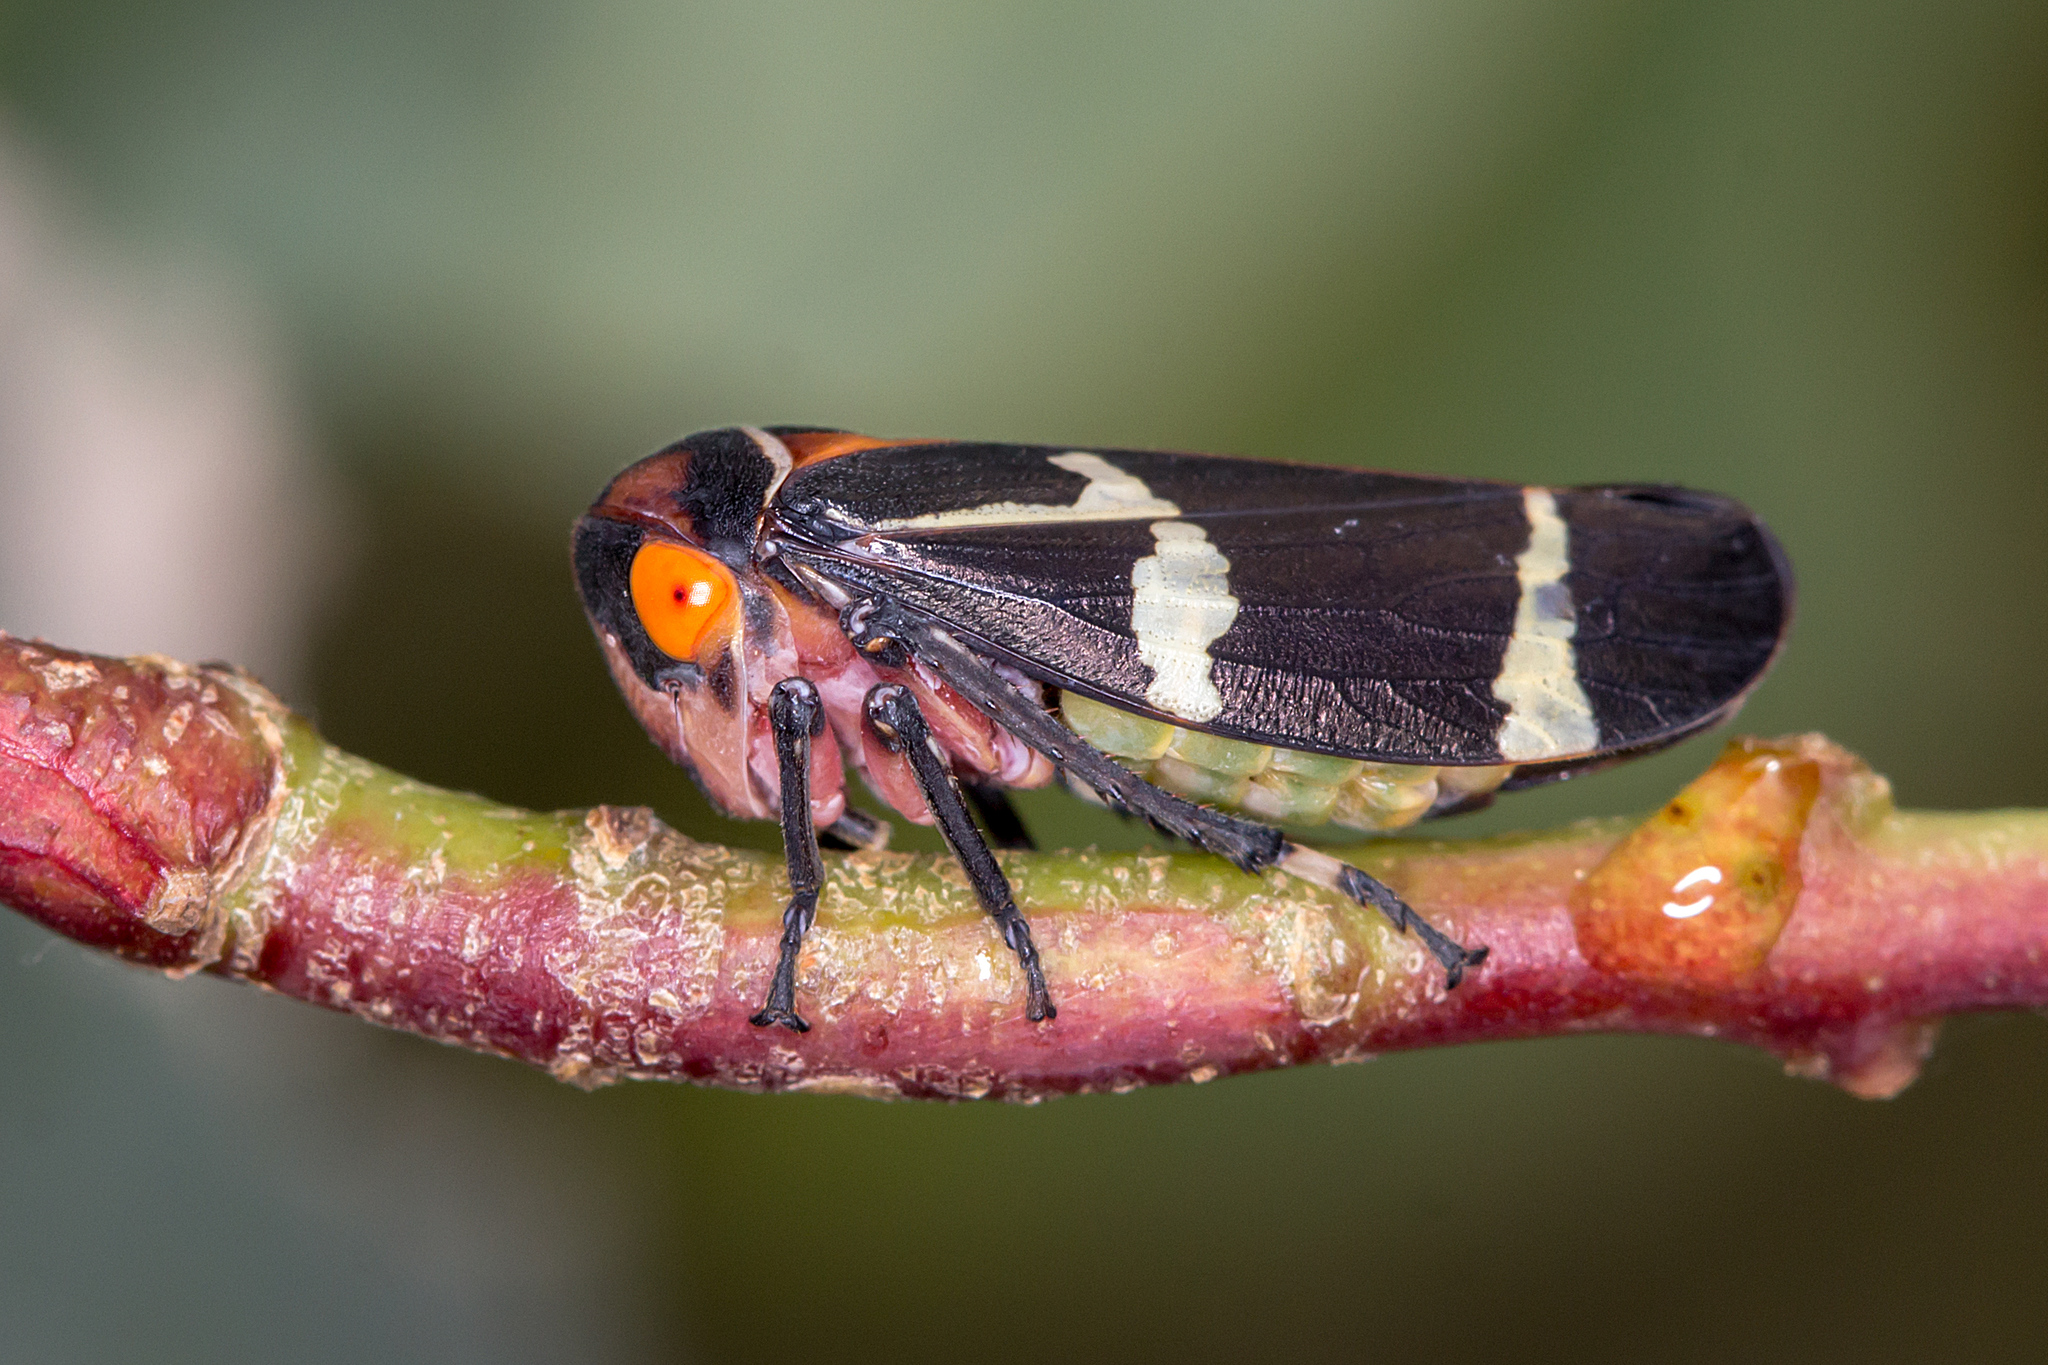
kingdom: Animalia
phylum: Arthropoda
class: Insecta
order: Hemiptera
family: Cicadellidae
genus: Eurymeloides
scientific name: Eurymeloides pulchra
